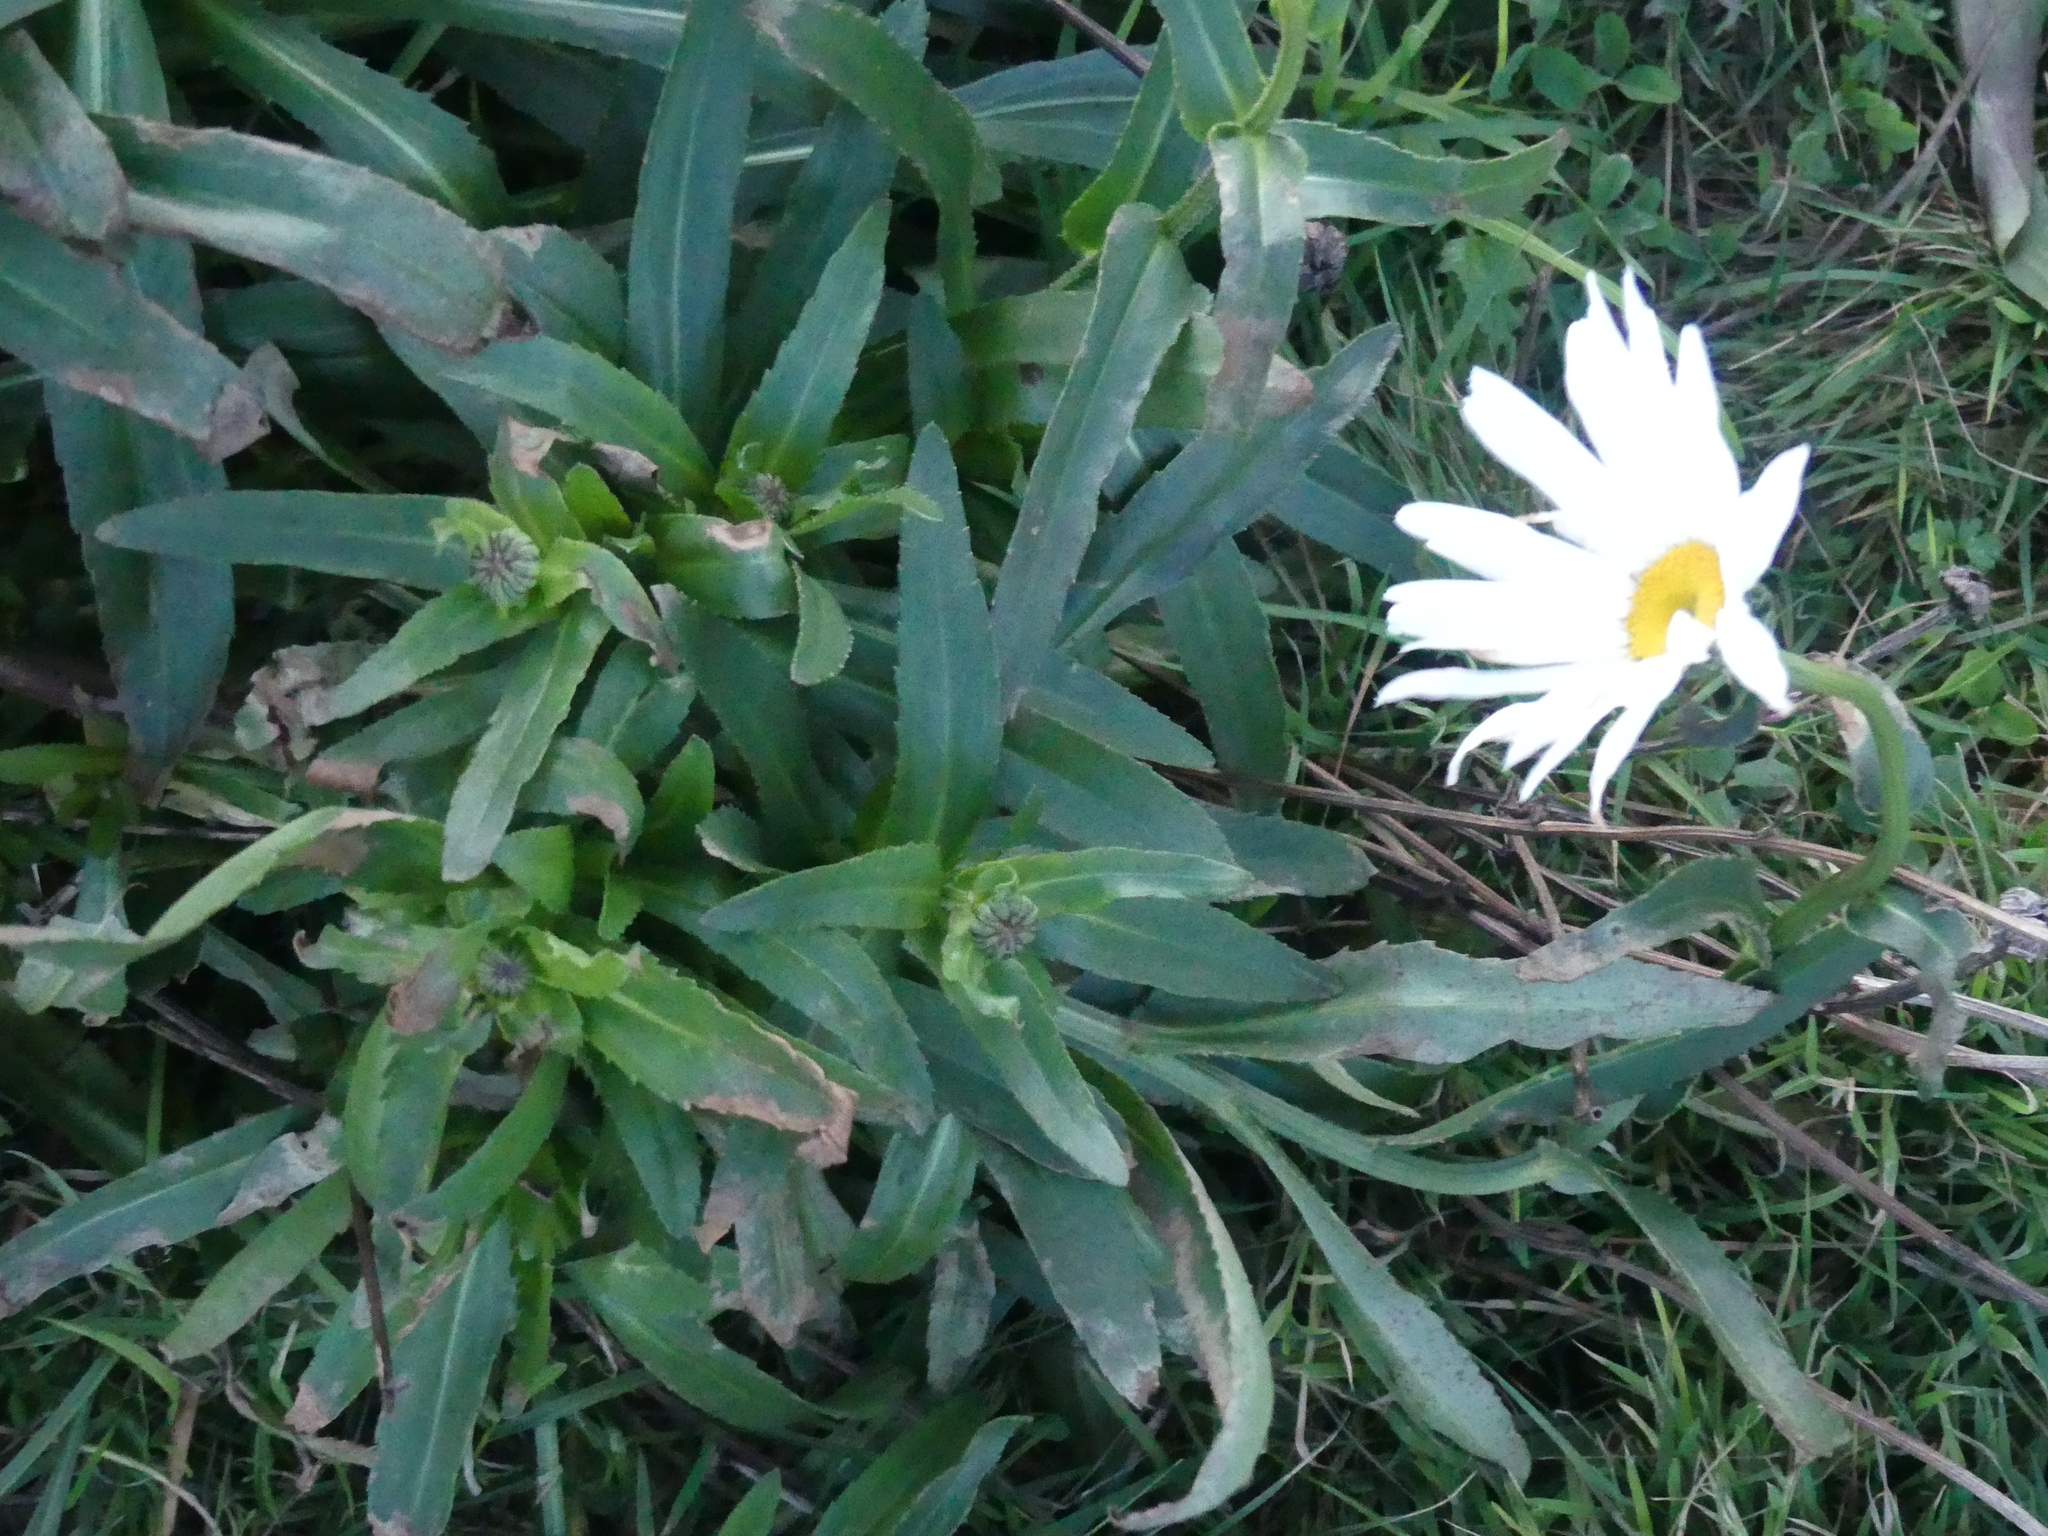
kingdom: Plantae
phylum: Tracheophyta
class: Magnoliopsida
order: Asterales
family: Asteraceae
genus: Leucanthemum
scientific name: Leucanthemum maximum
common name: Max chrysanthemum
